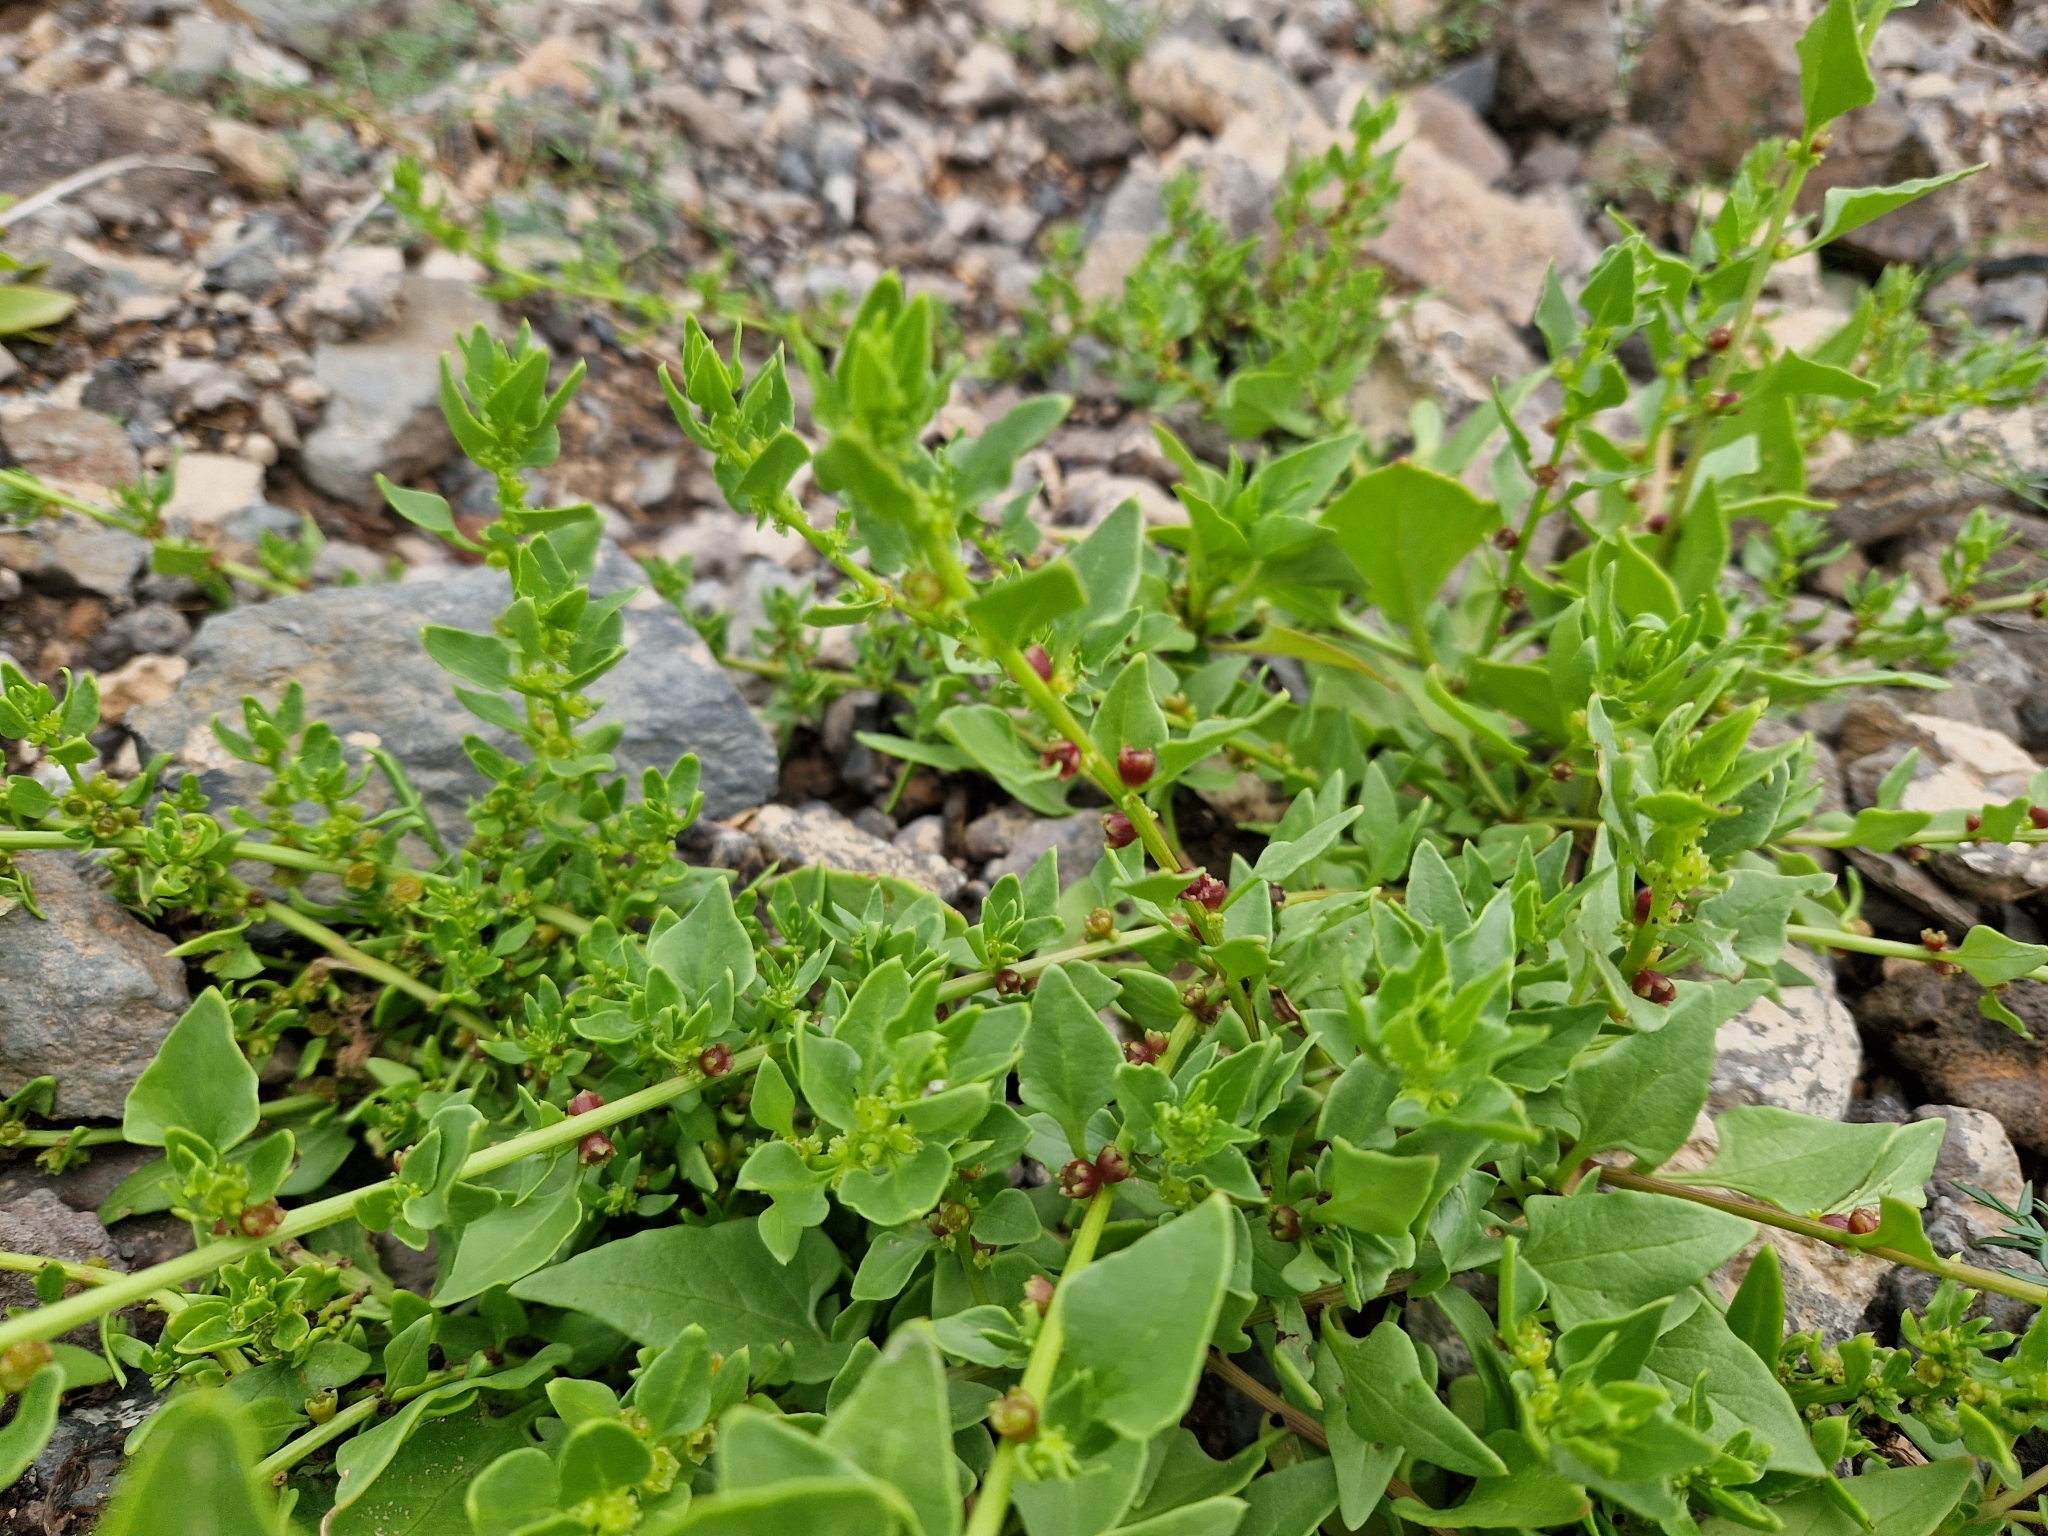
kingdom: Plantae
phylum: Tracheophyta
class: Magnoliopsida
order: Caryophyllales
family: Amaranthaceae
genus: Patellifolia
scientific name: Patellifolia procumbens
